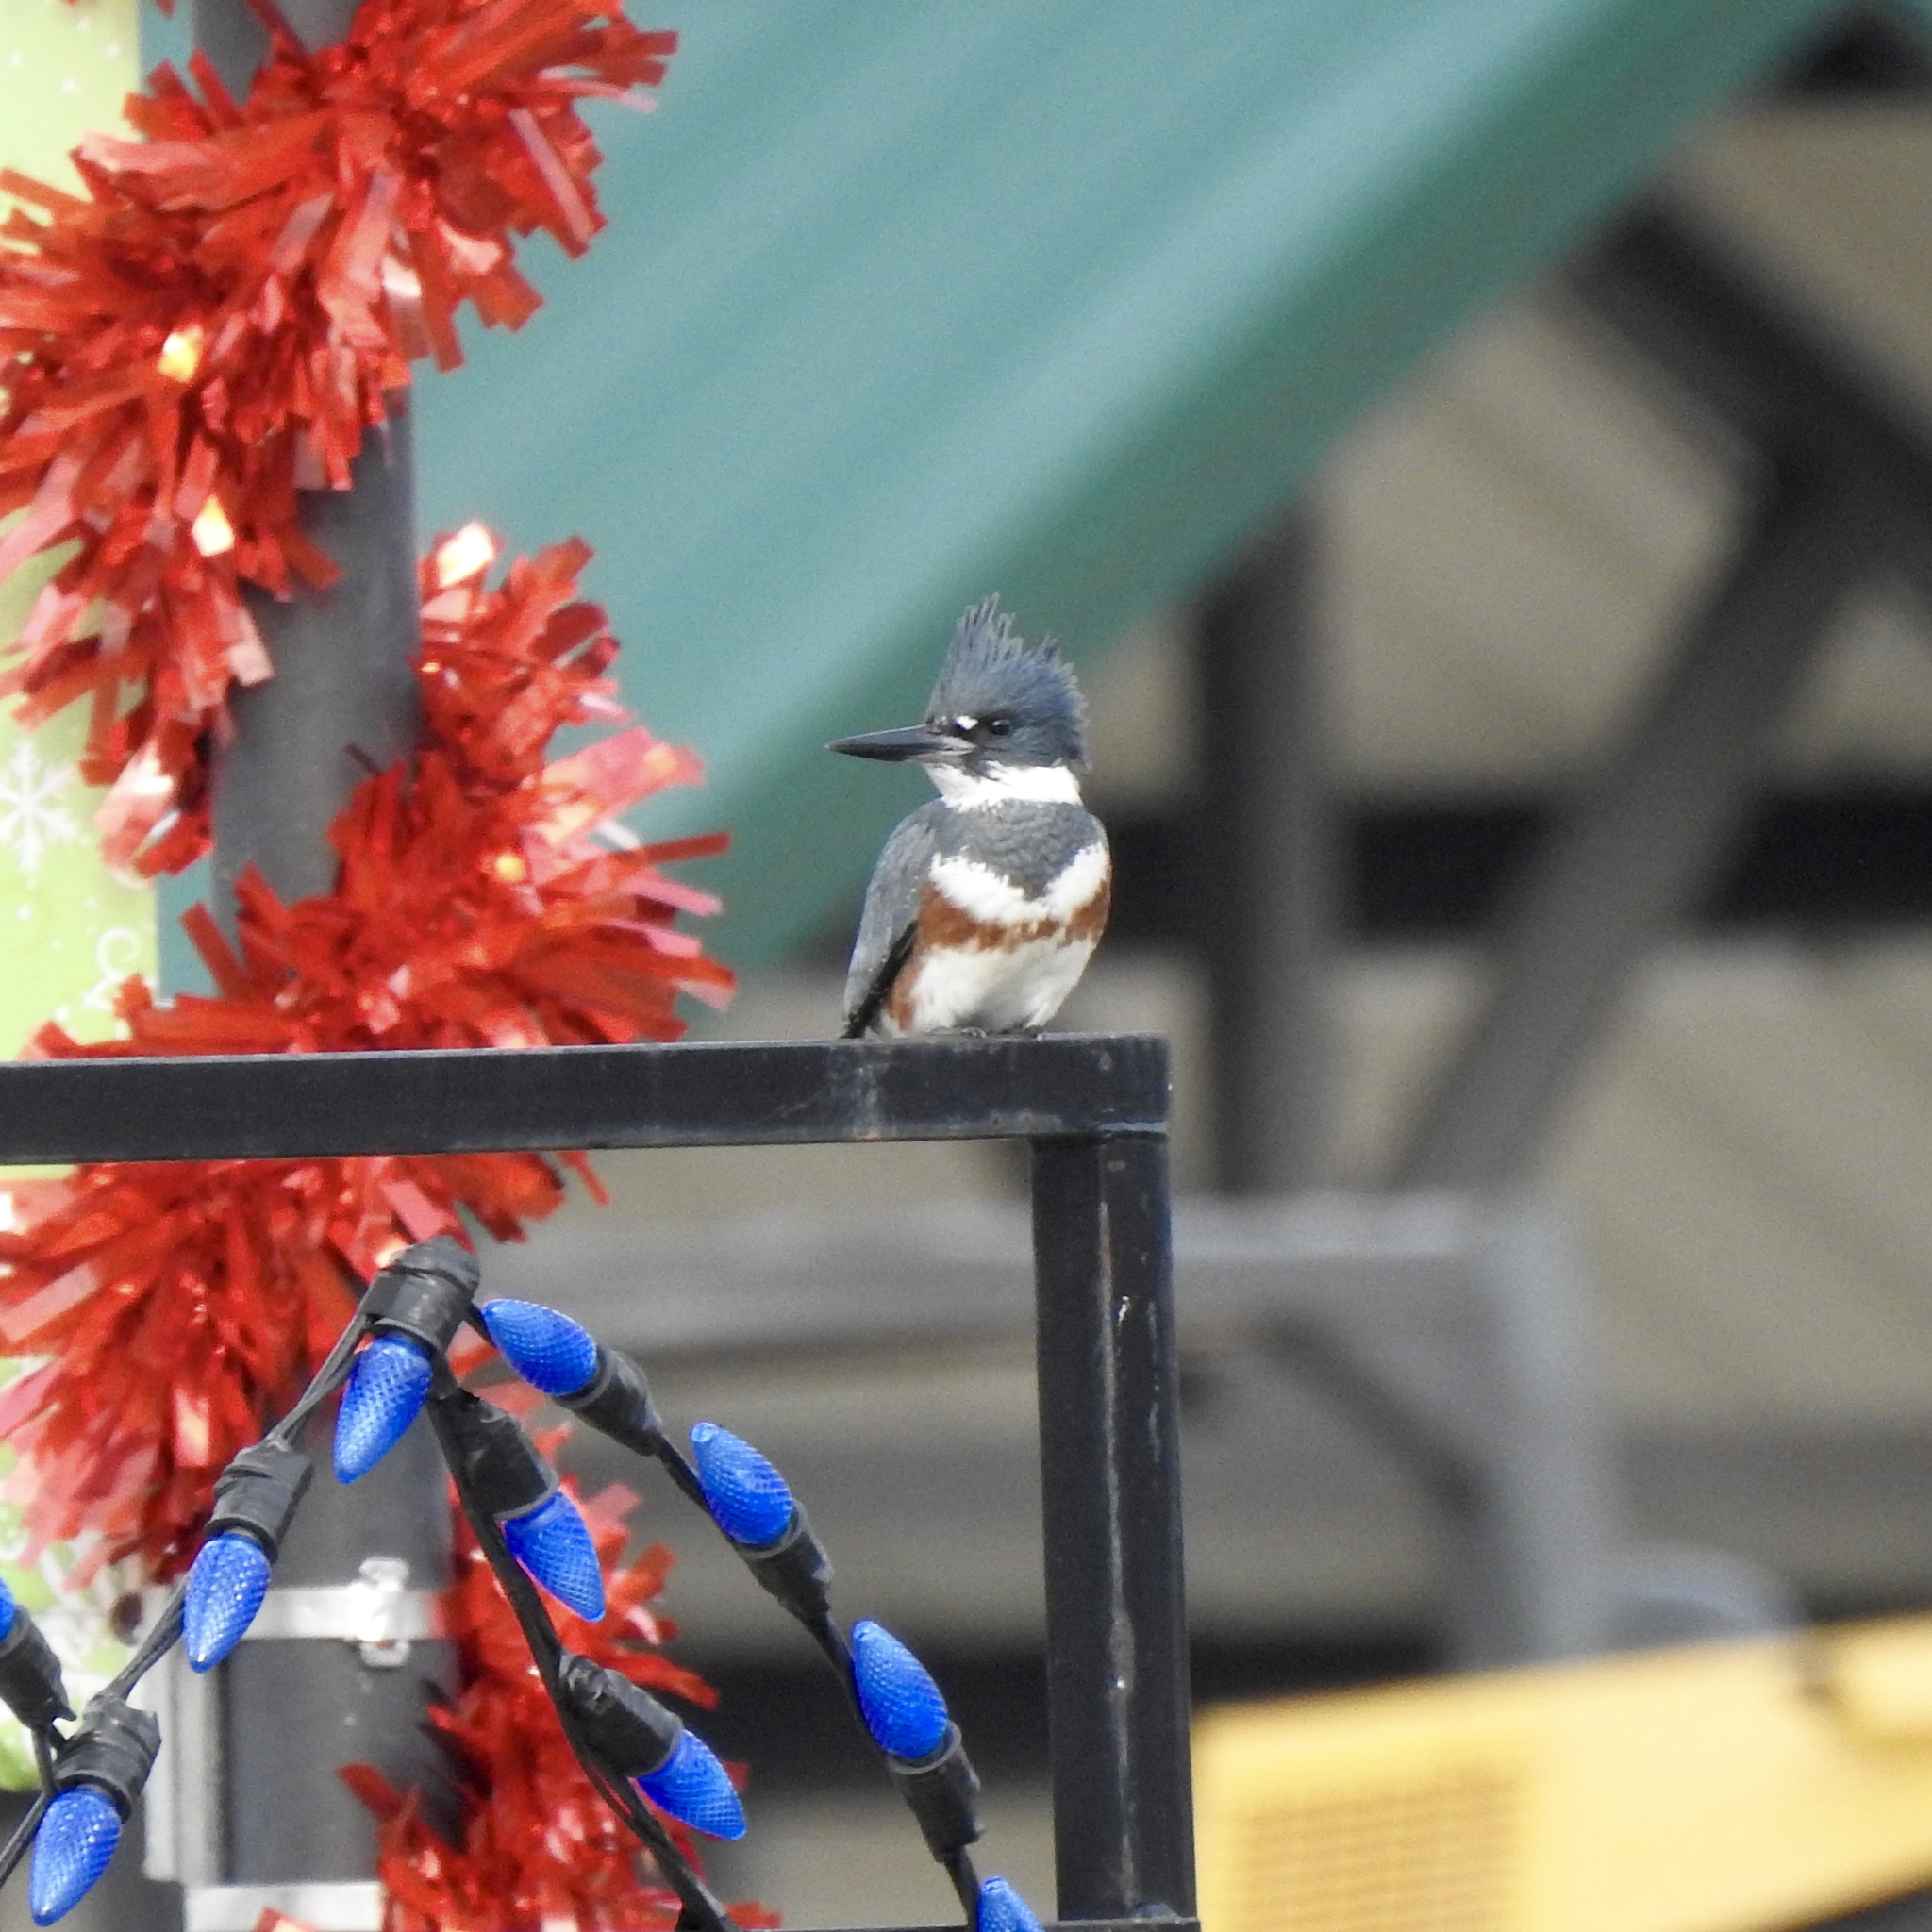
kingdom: Animalia
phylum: Chordata
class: Aves
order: Coraciiformes
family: Alcedinidae
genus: Megaceryle
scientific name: Megaceryle alcyon
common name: Belted kingfisher
